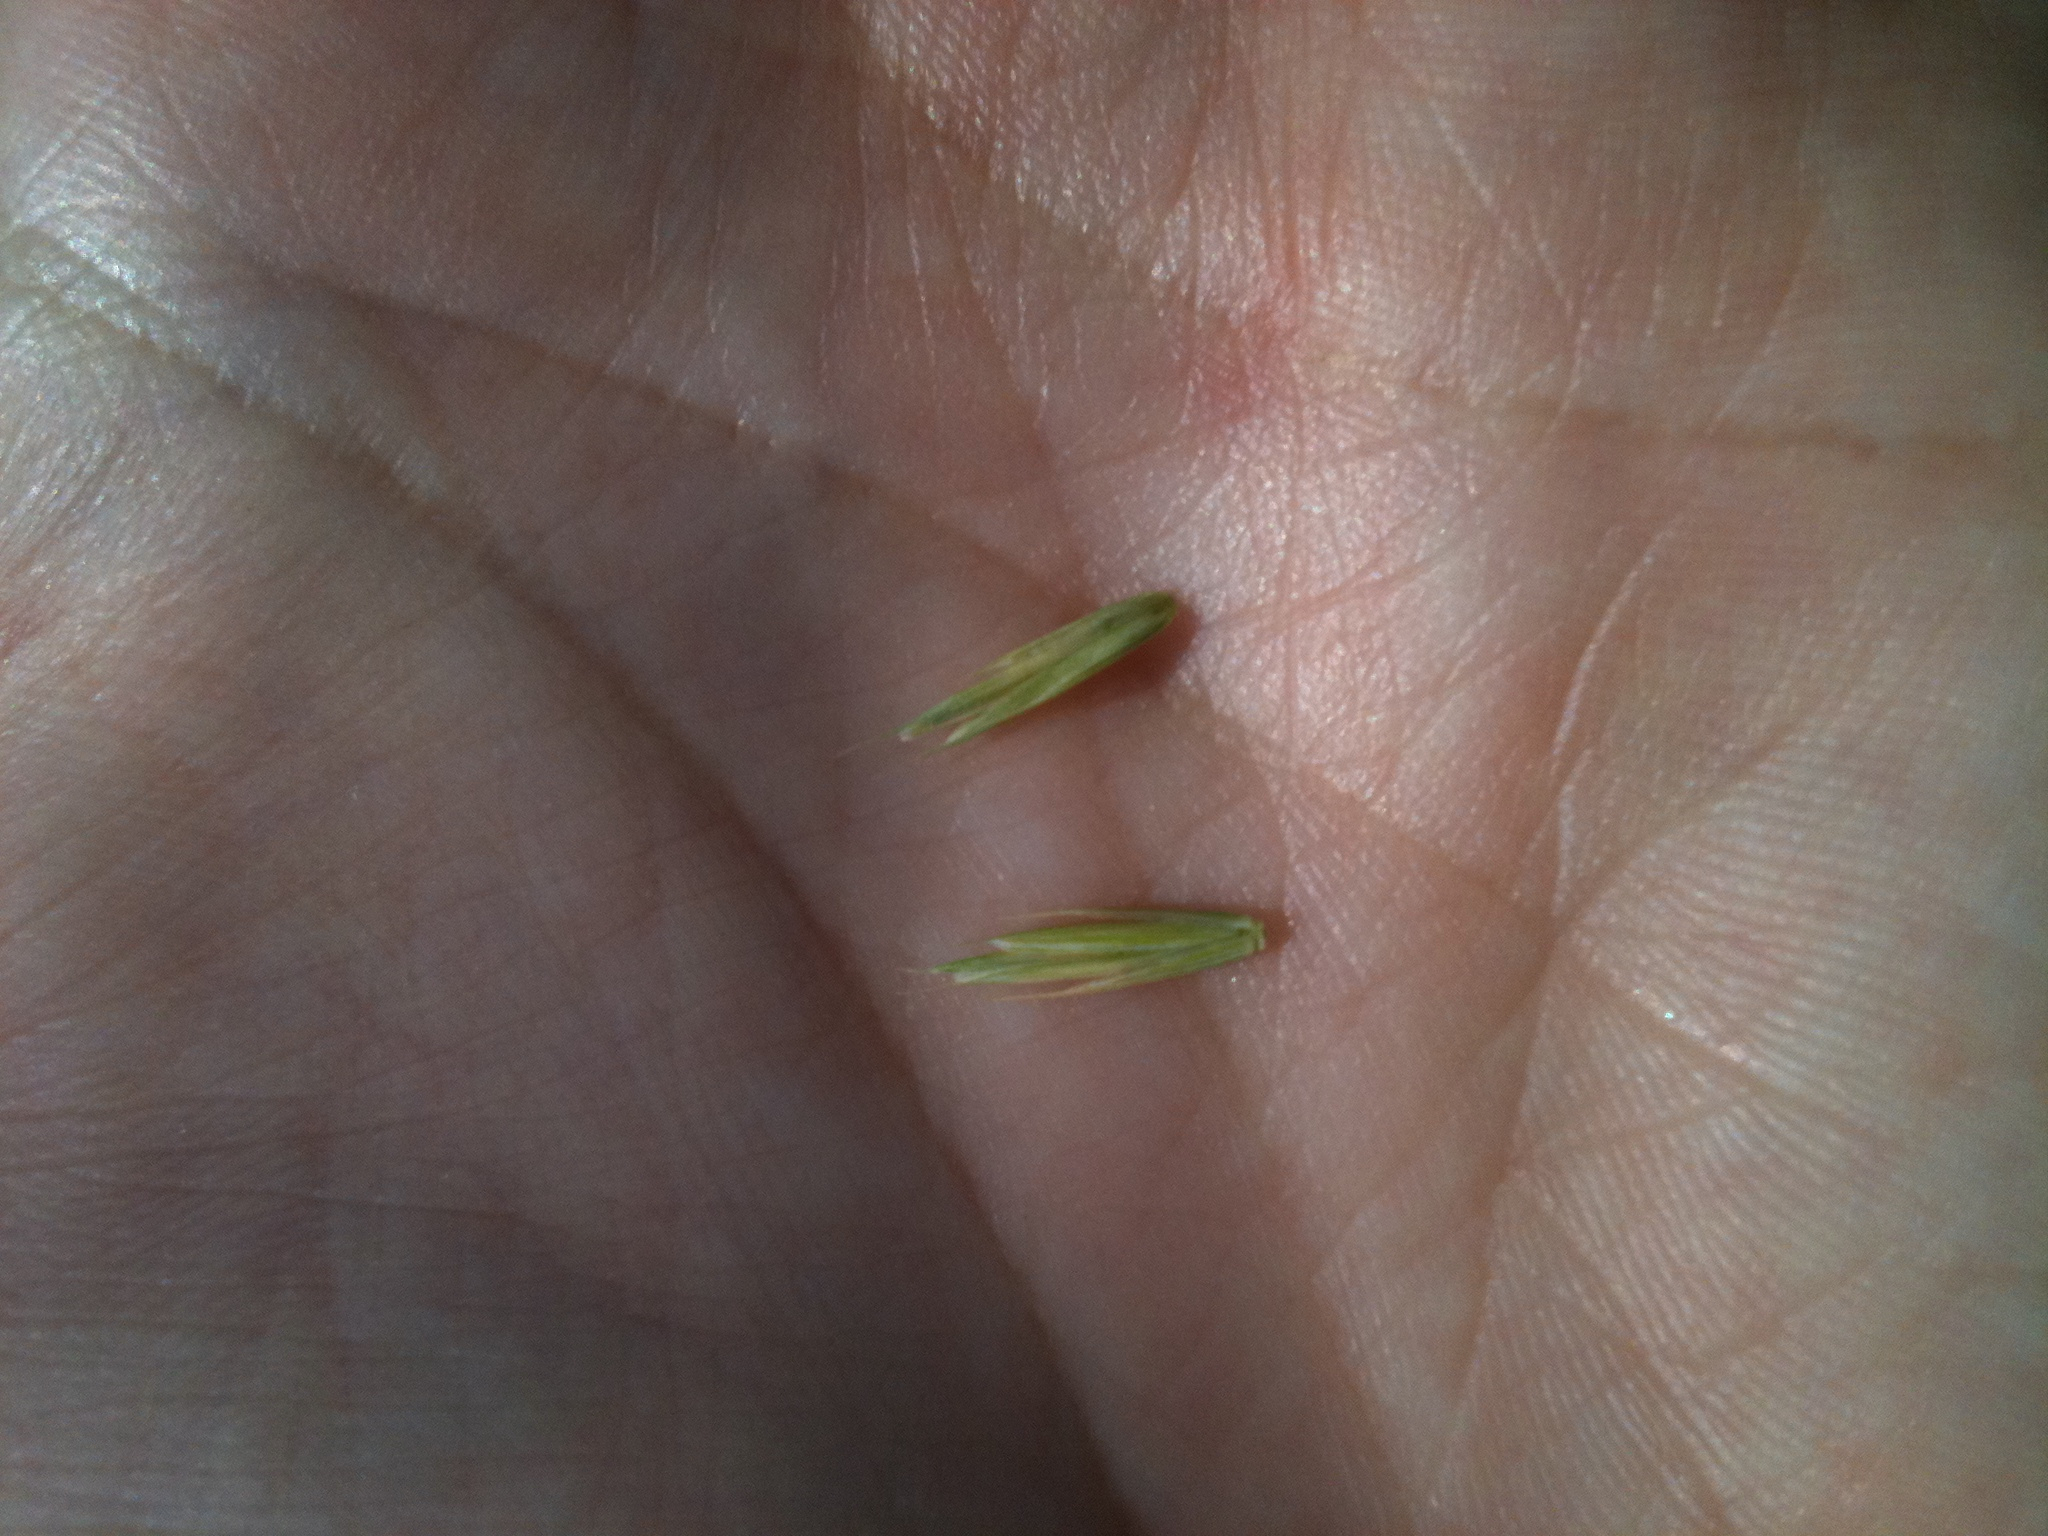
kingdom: Plantae
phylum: Tracheophyta
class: Liliopsida
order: Poales
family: Poaceae
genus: Elymus
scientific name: Elymus repens
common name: Quackgrass
